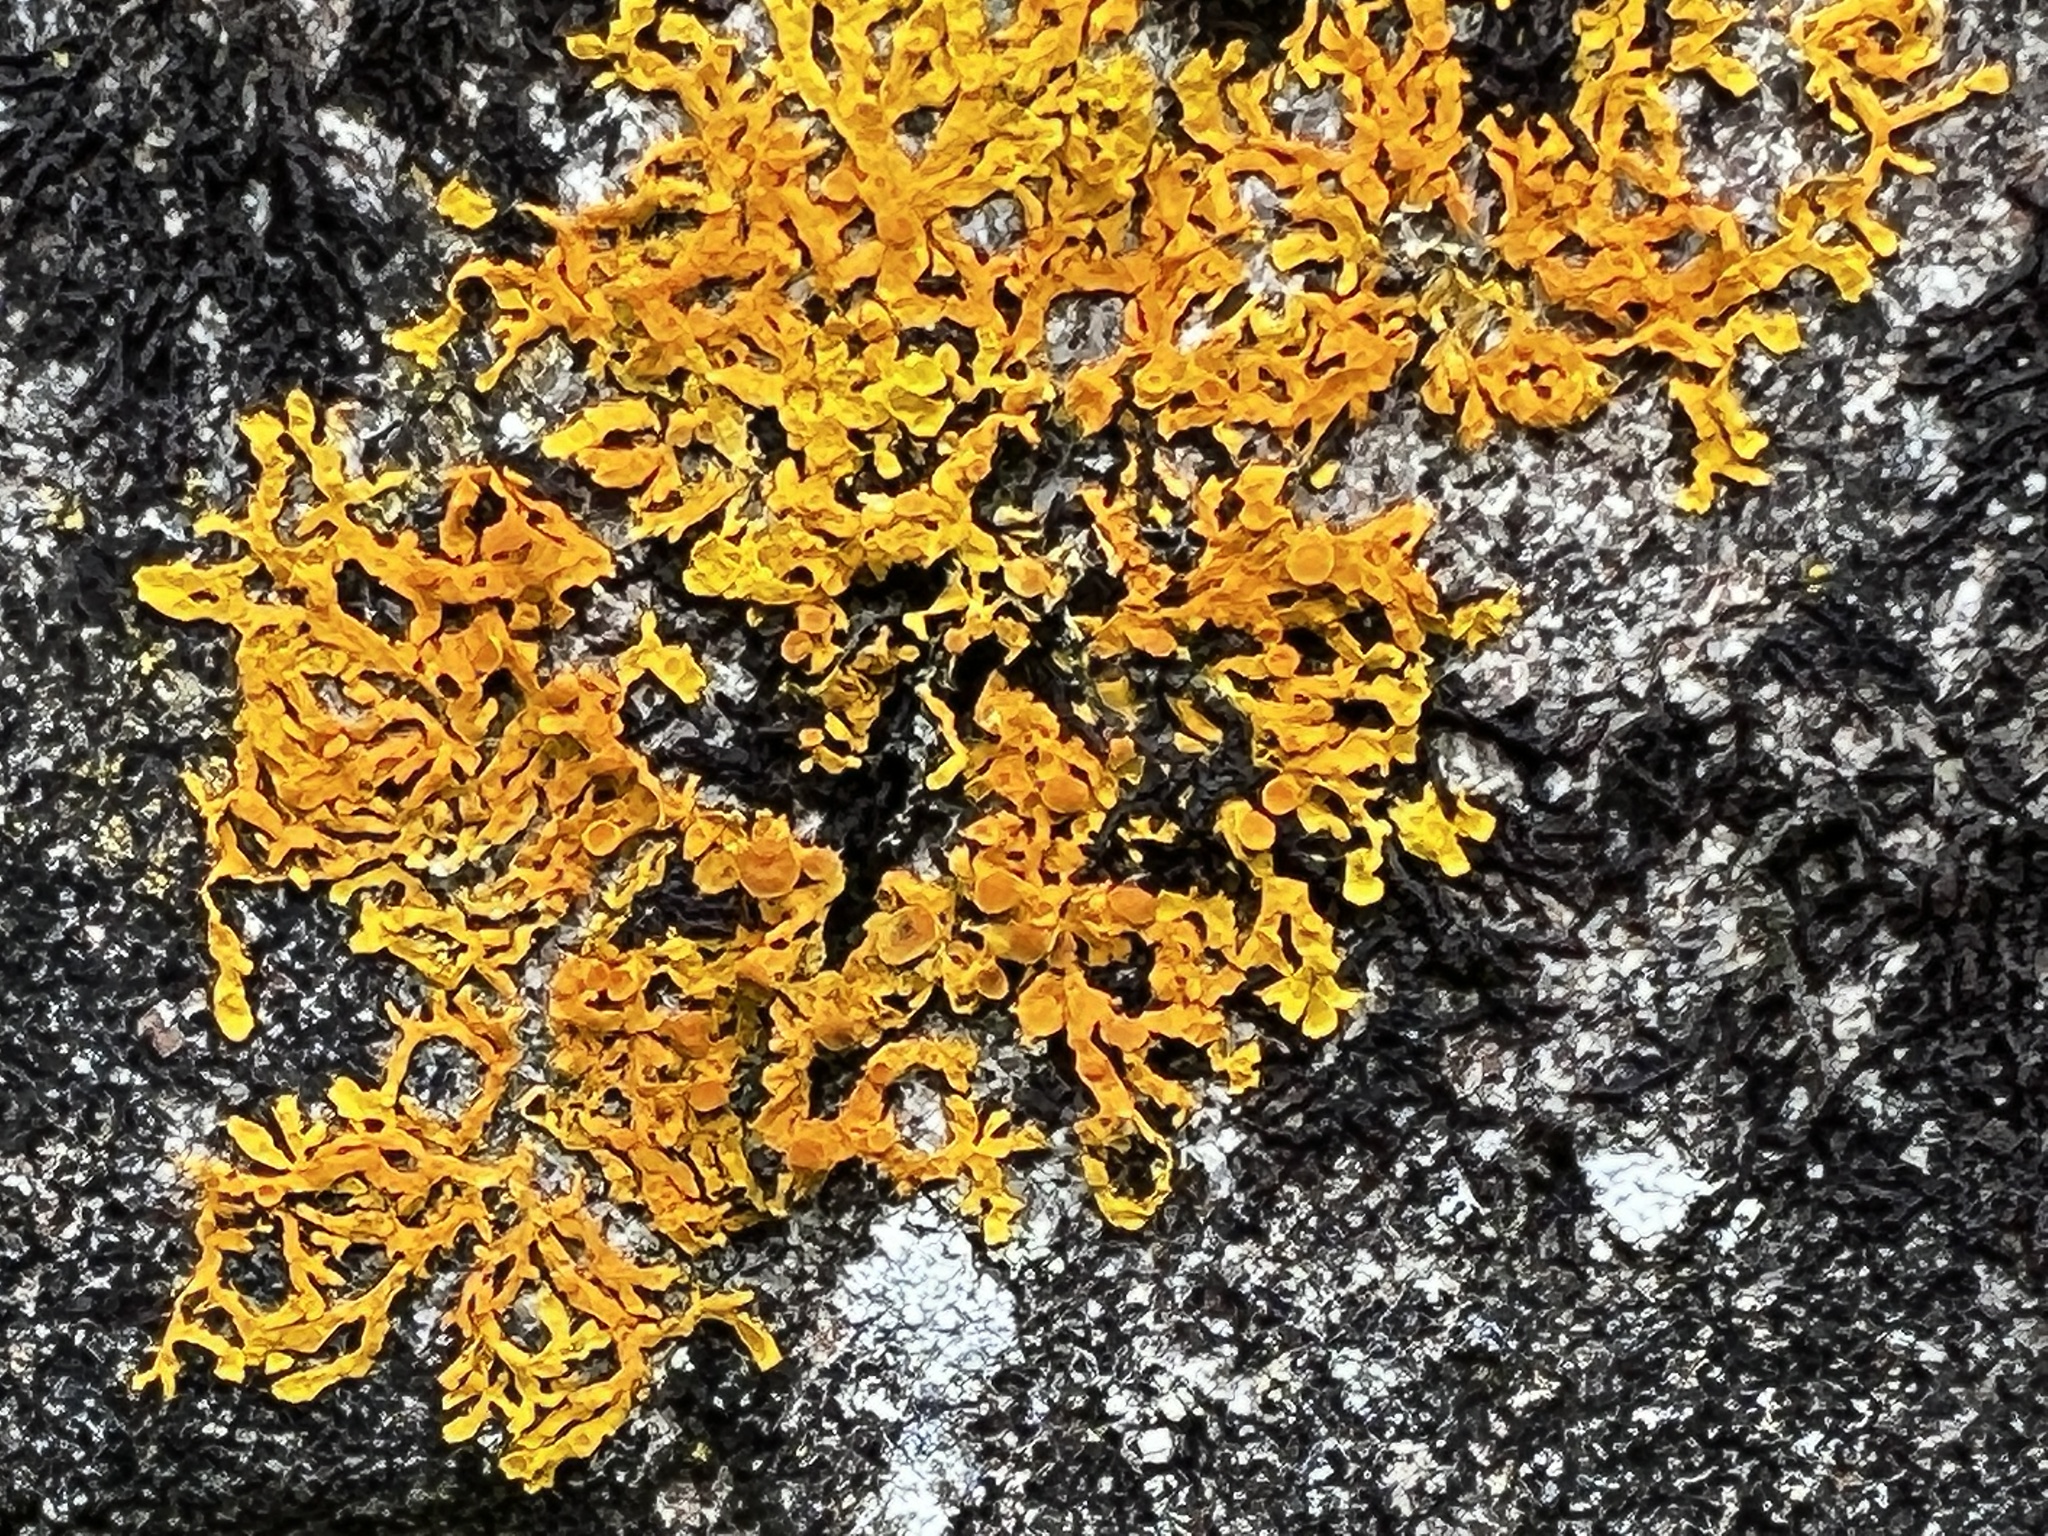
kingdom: Fungi
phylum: Ascomycota
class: Lecanoromycetes
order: Teloschistales
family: Teloschistaceae
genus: Xanthoria
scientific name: Xanthoria aureola
